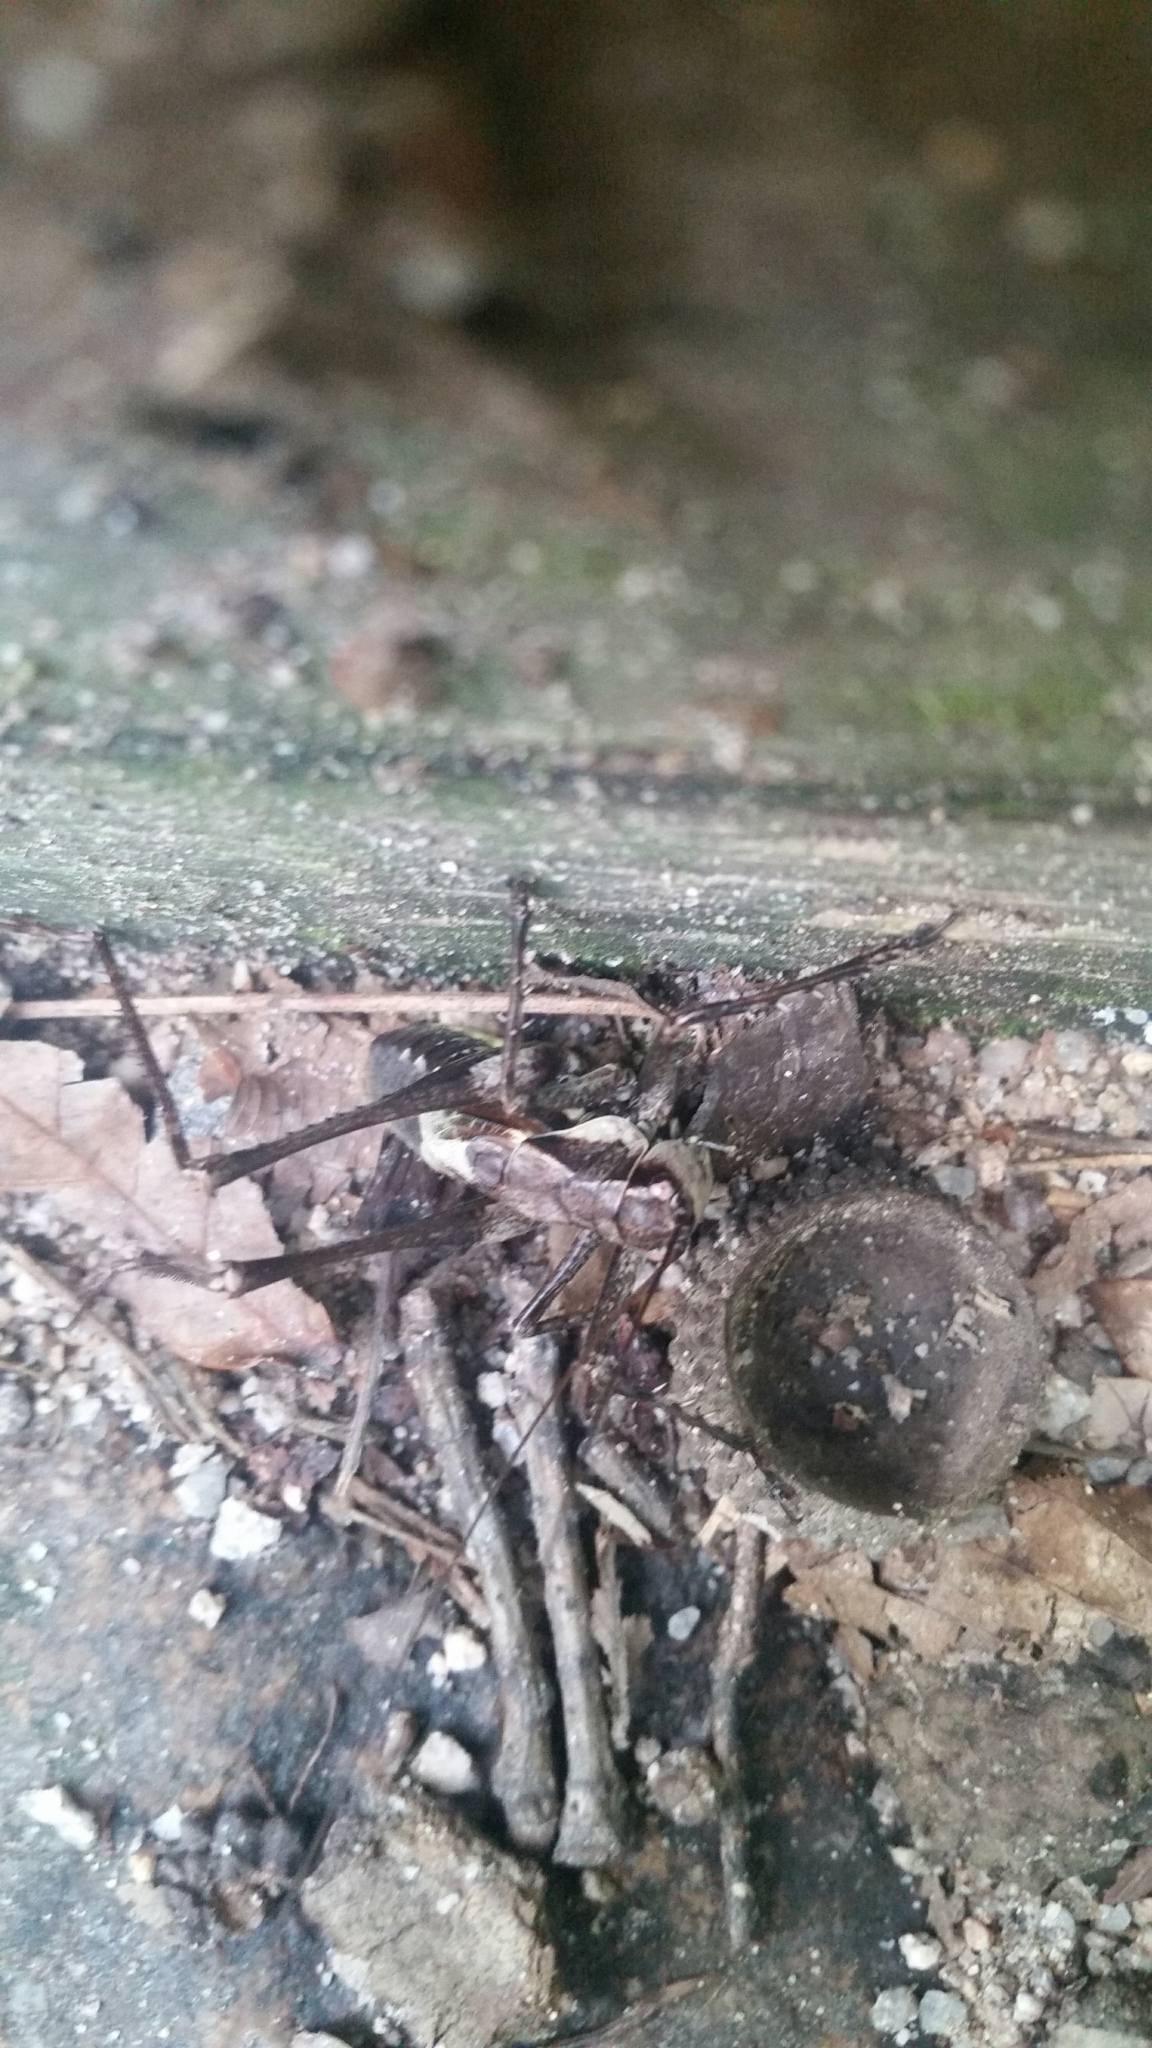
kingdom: Animalia
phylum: Arthropoda
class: Insecta
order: Orthoptera
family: Tettigoniidae
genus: Paratlanticus
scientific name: Paratlanticus ussuriensis
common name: Ussur brown katydid
